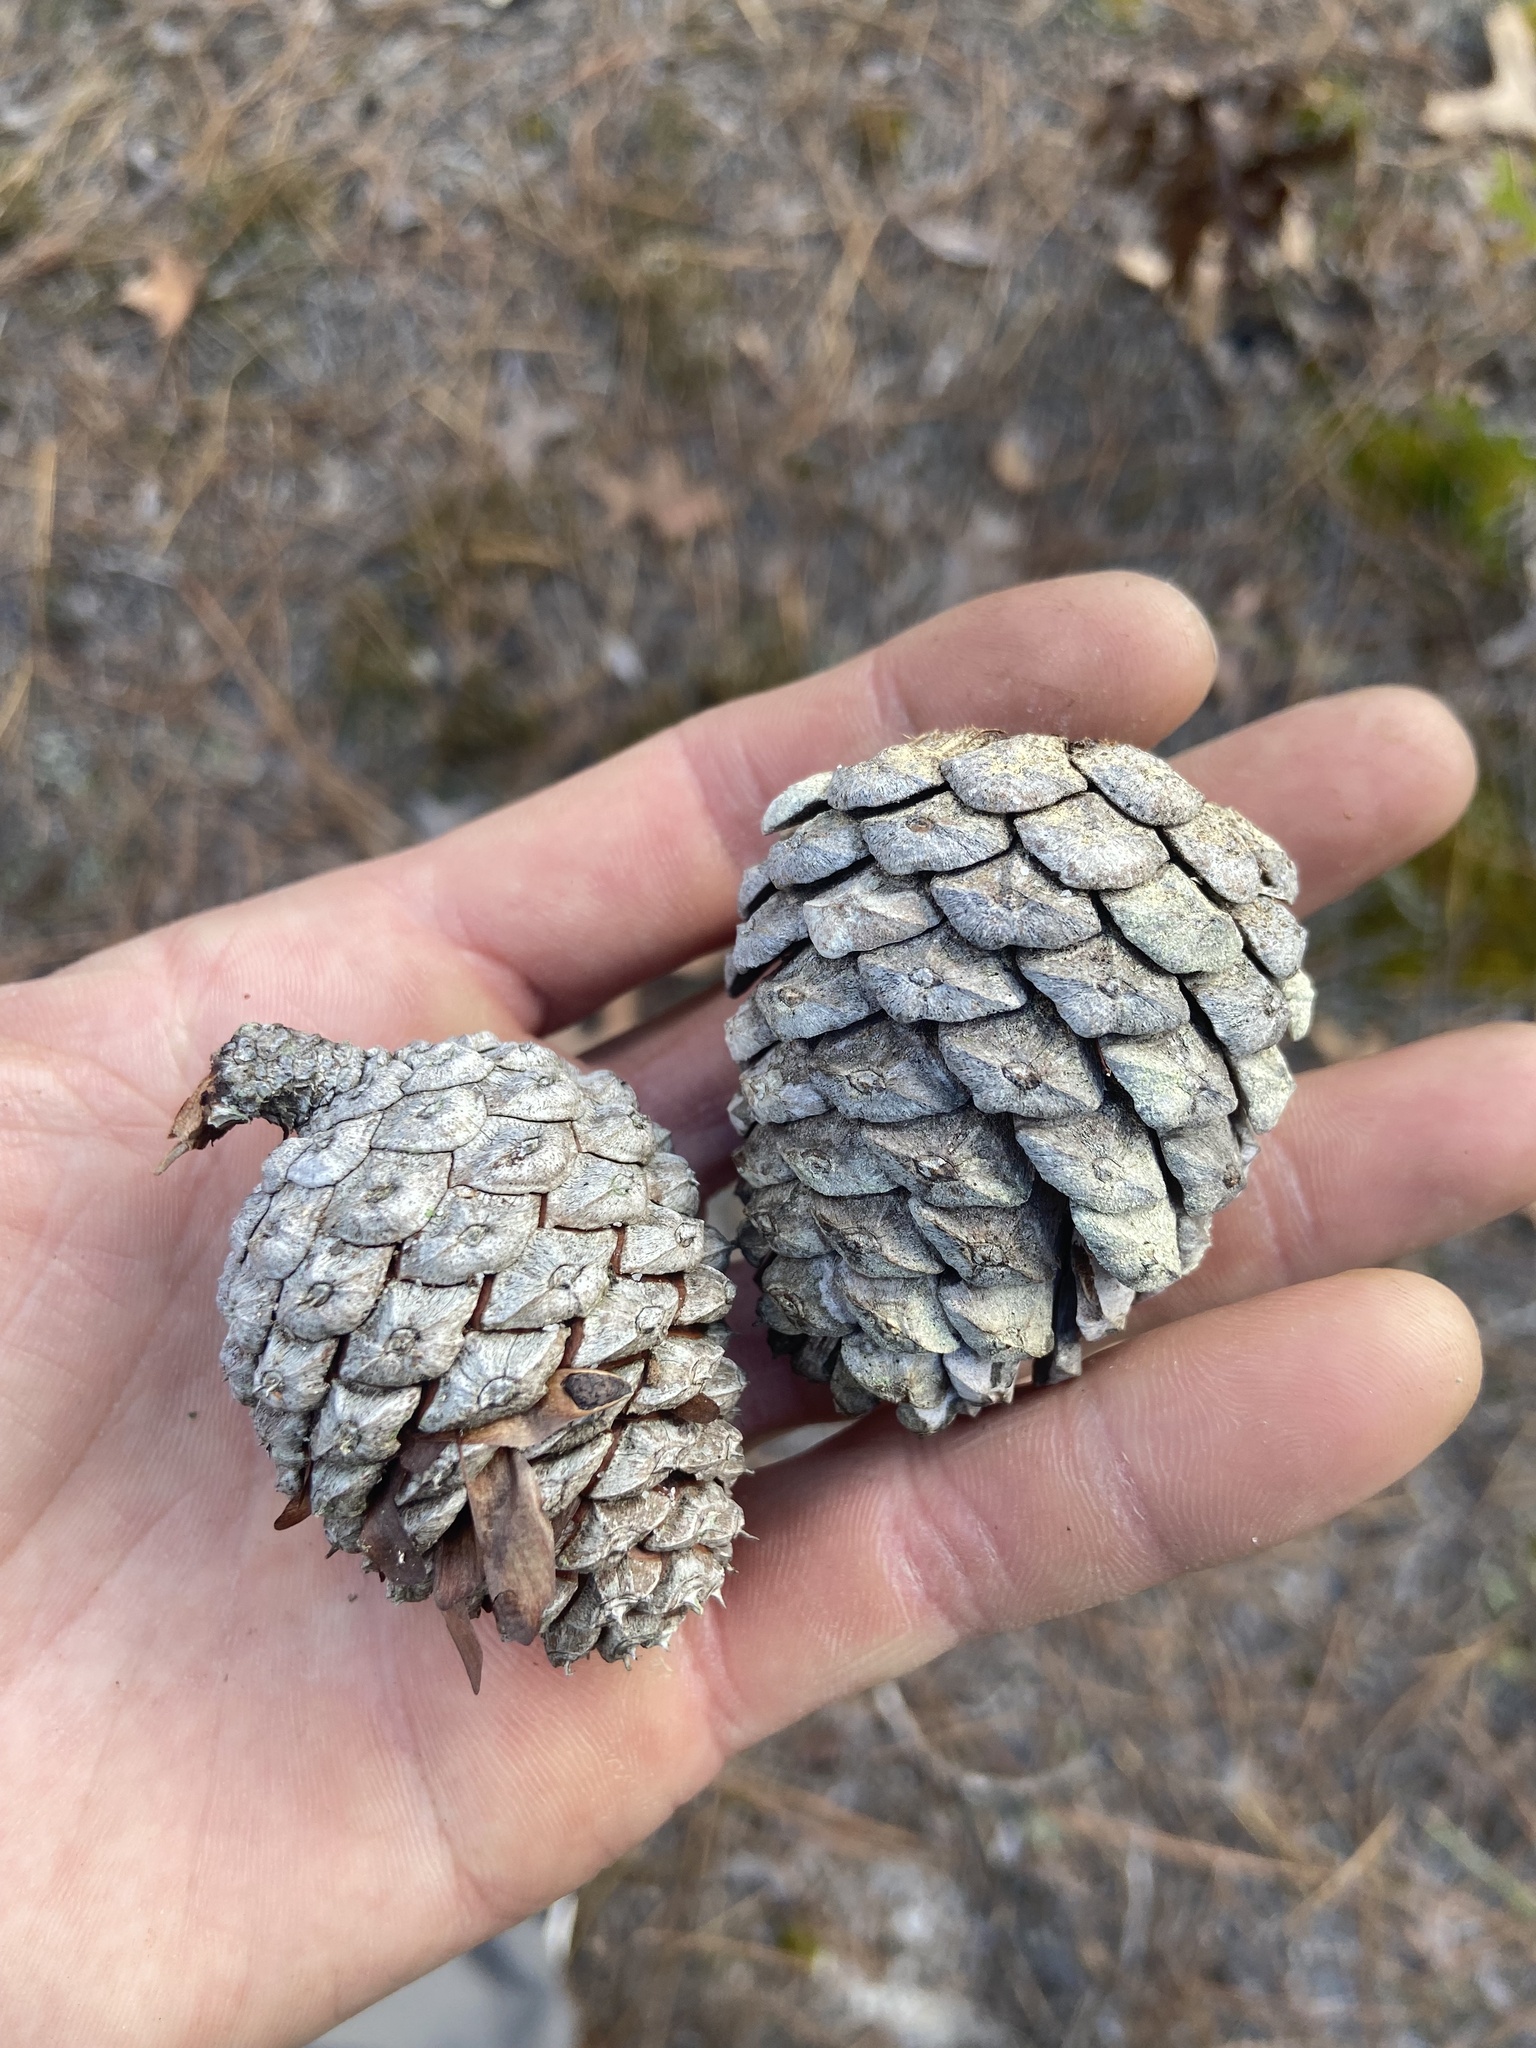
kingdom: Plantae
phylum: Tracheophyta
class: Pinopsida
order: Pinales
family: Pinaceae
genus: Pinus
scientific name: Pinus serotina
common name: Marsh pine
